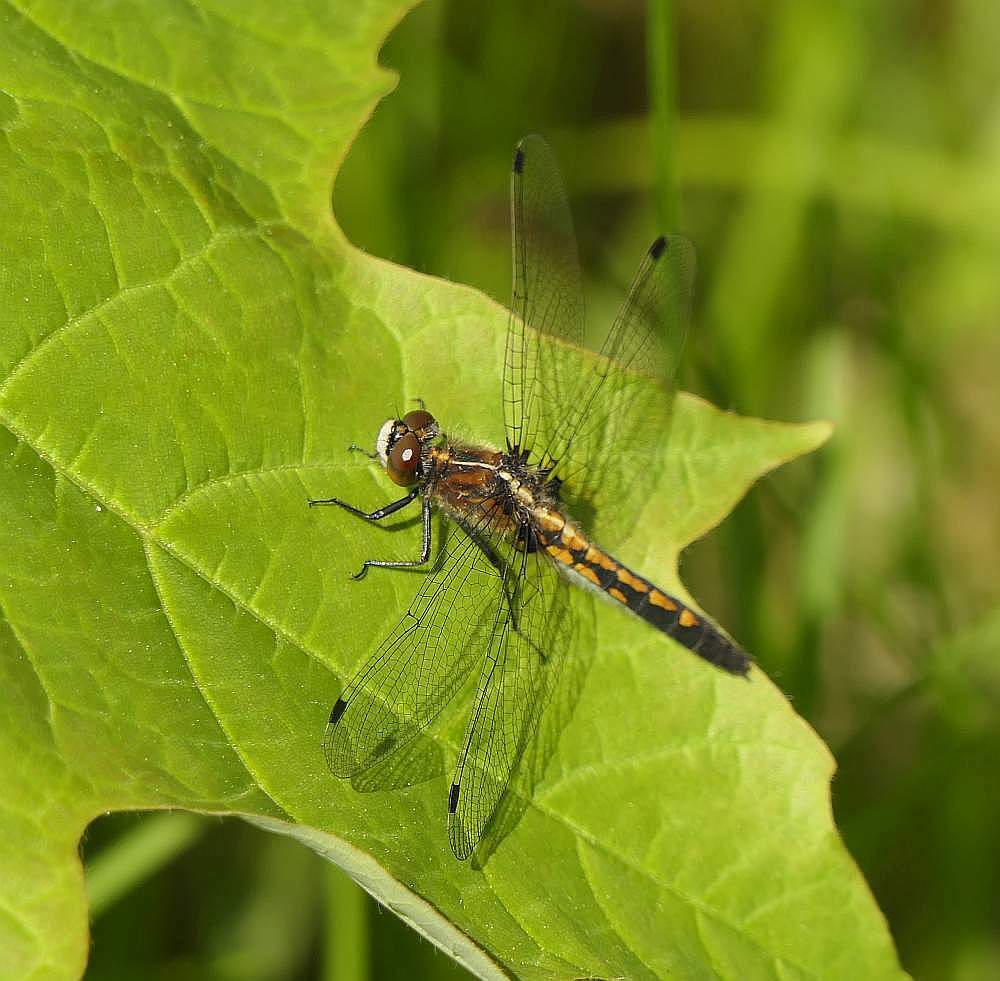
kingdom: Animalia
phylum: Arthropoda
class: Insecta
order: Odonata
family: Libellulidae
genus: Leucorrhinia
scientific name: Leucorrhinia intacta
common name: Dot-tailed whiteface
